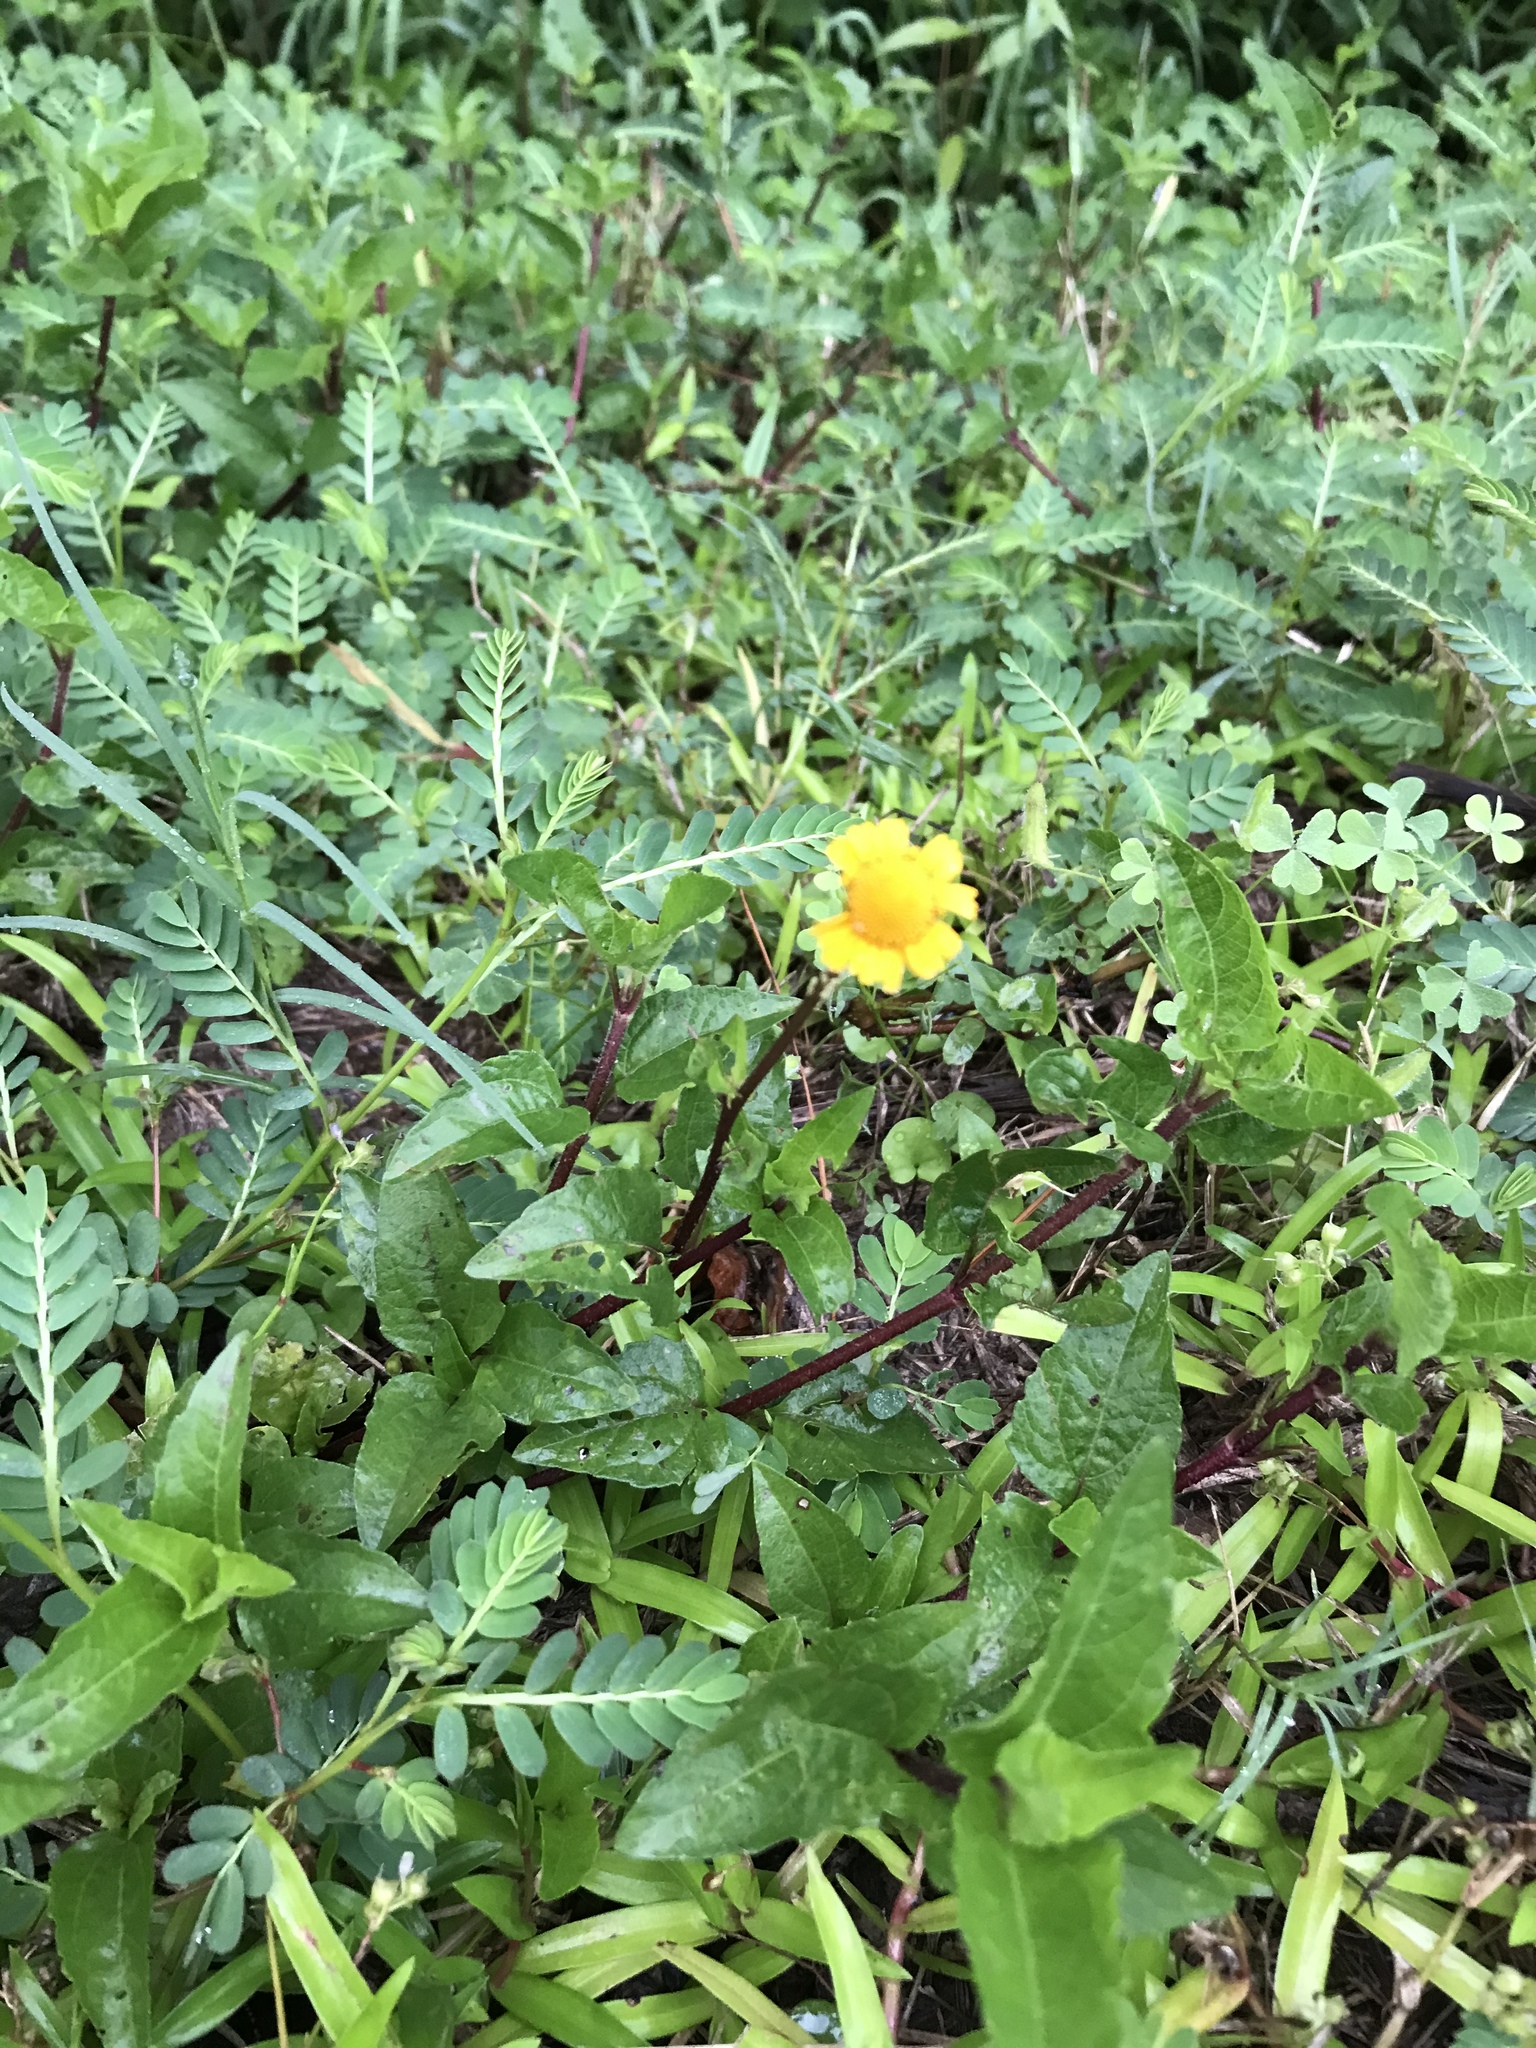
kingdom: Plantae
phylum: Tracheophyta
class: Magnoliopsida
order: Asterales
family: Asteraceae
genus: Acmella
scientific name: Acmella repens
